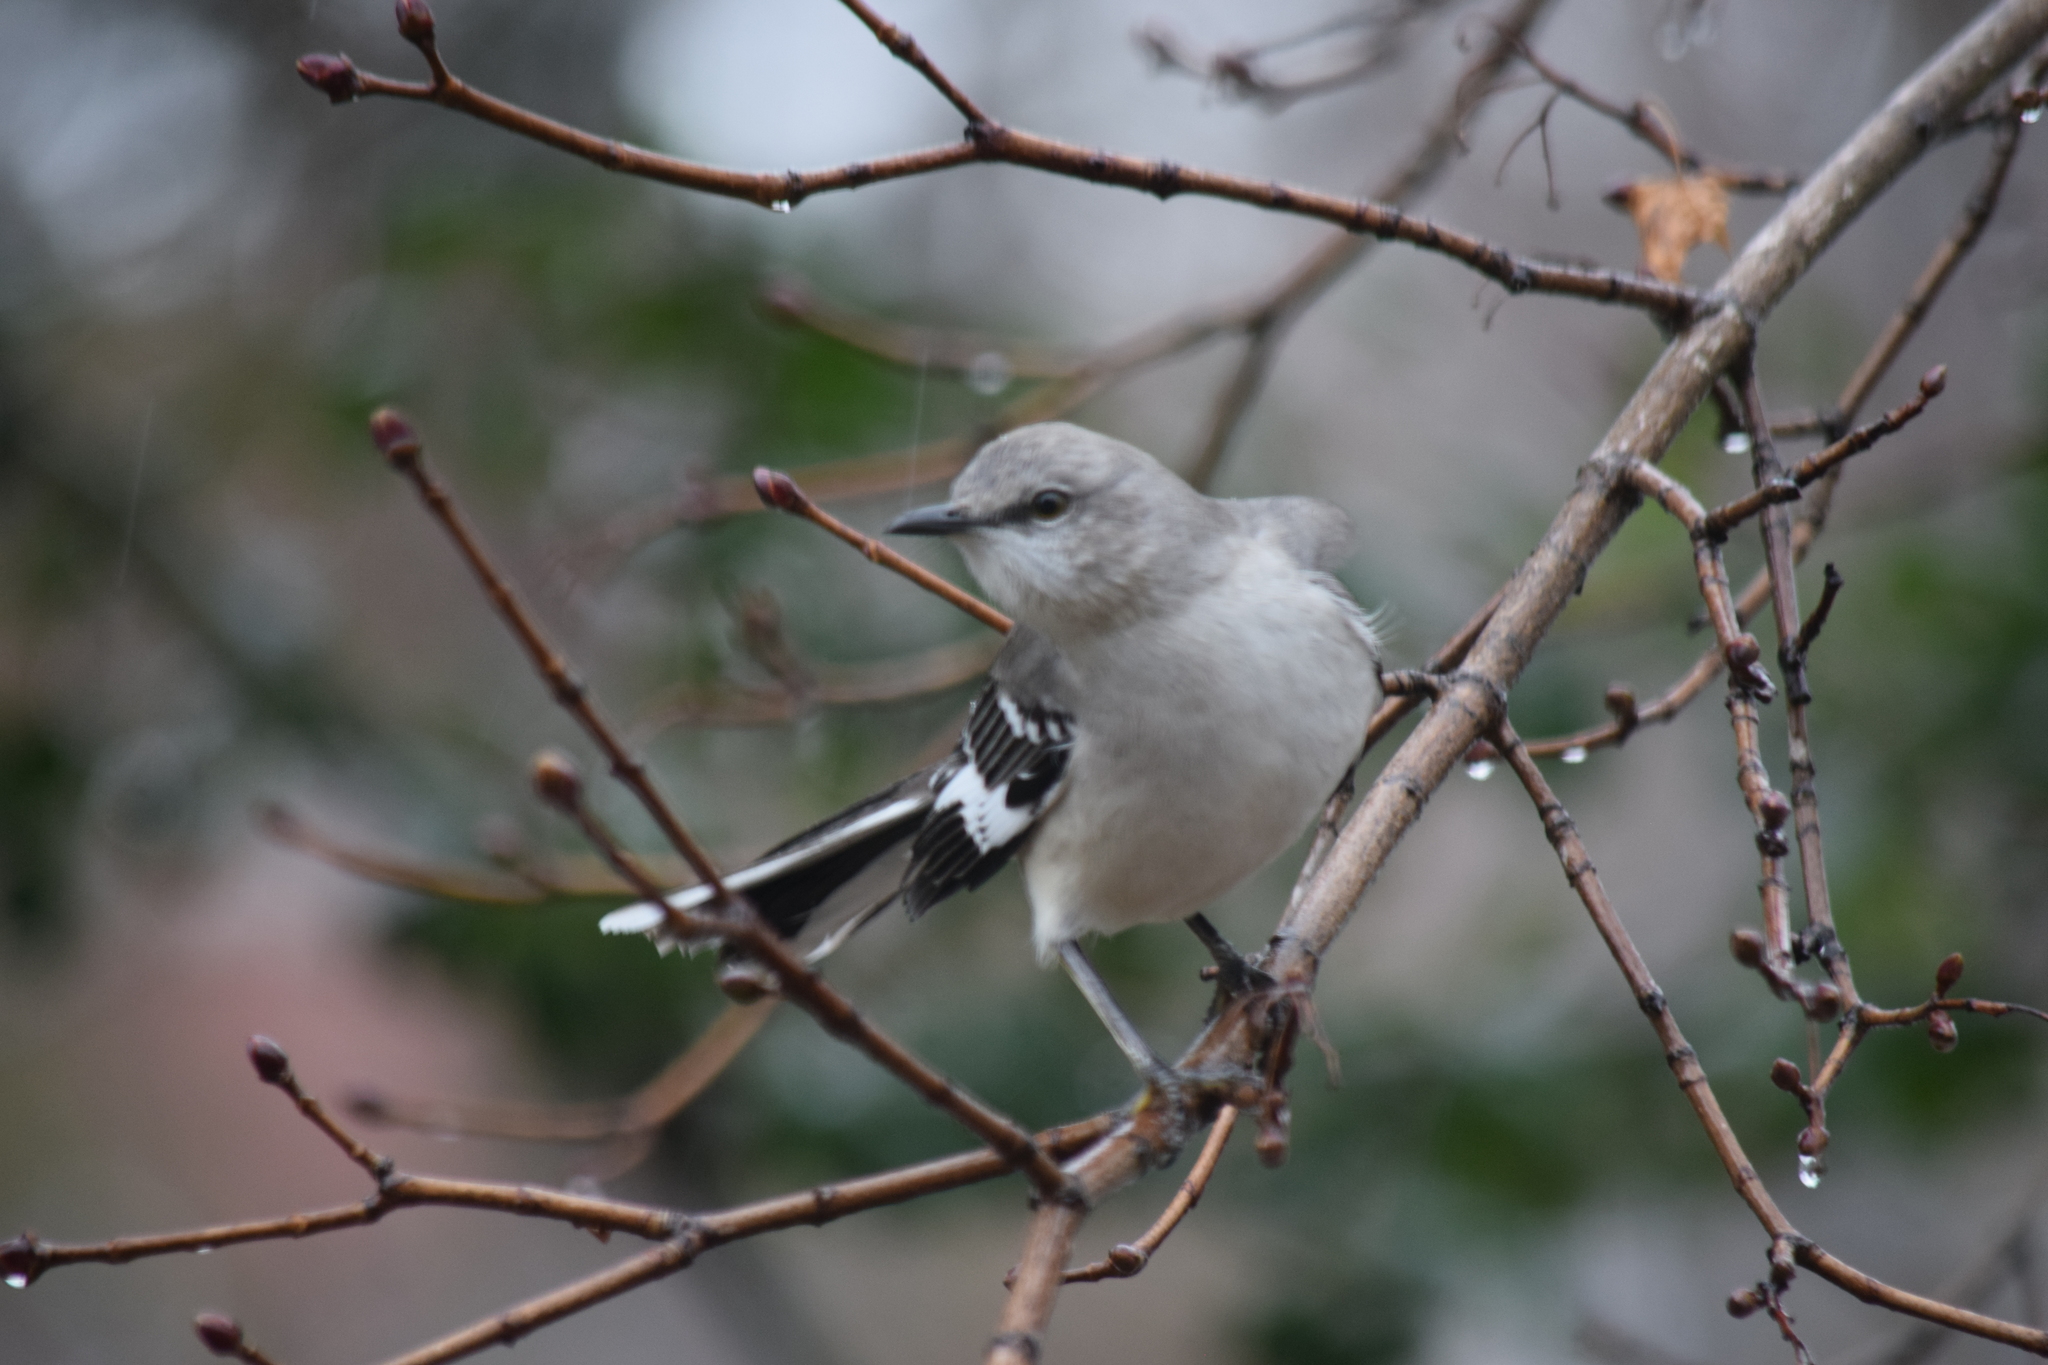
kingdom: Animalia
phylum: Chordata
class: Aves
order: Passeriformes
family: Mimidae
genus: Mimus
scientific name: Mimus polyglottos
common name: Northern mockingbird
